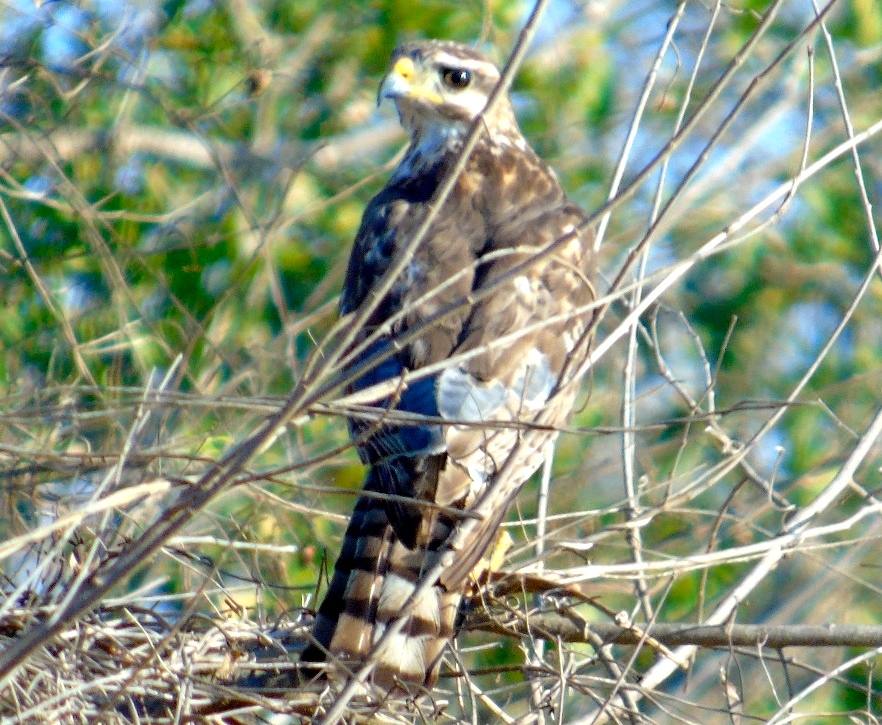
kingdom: Animalia
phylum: Chordata
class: Aves
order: Accipitriformes
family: Accipitridae
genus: Buteo
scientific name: Buteo nitidus
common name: Grey-lined hawk
